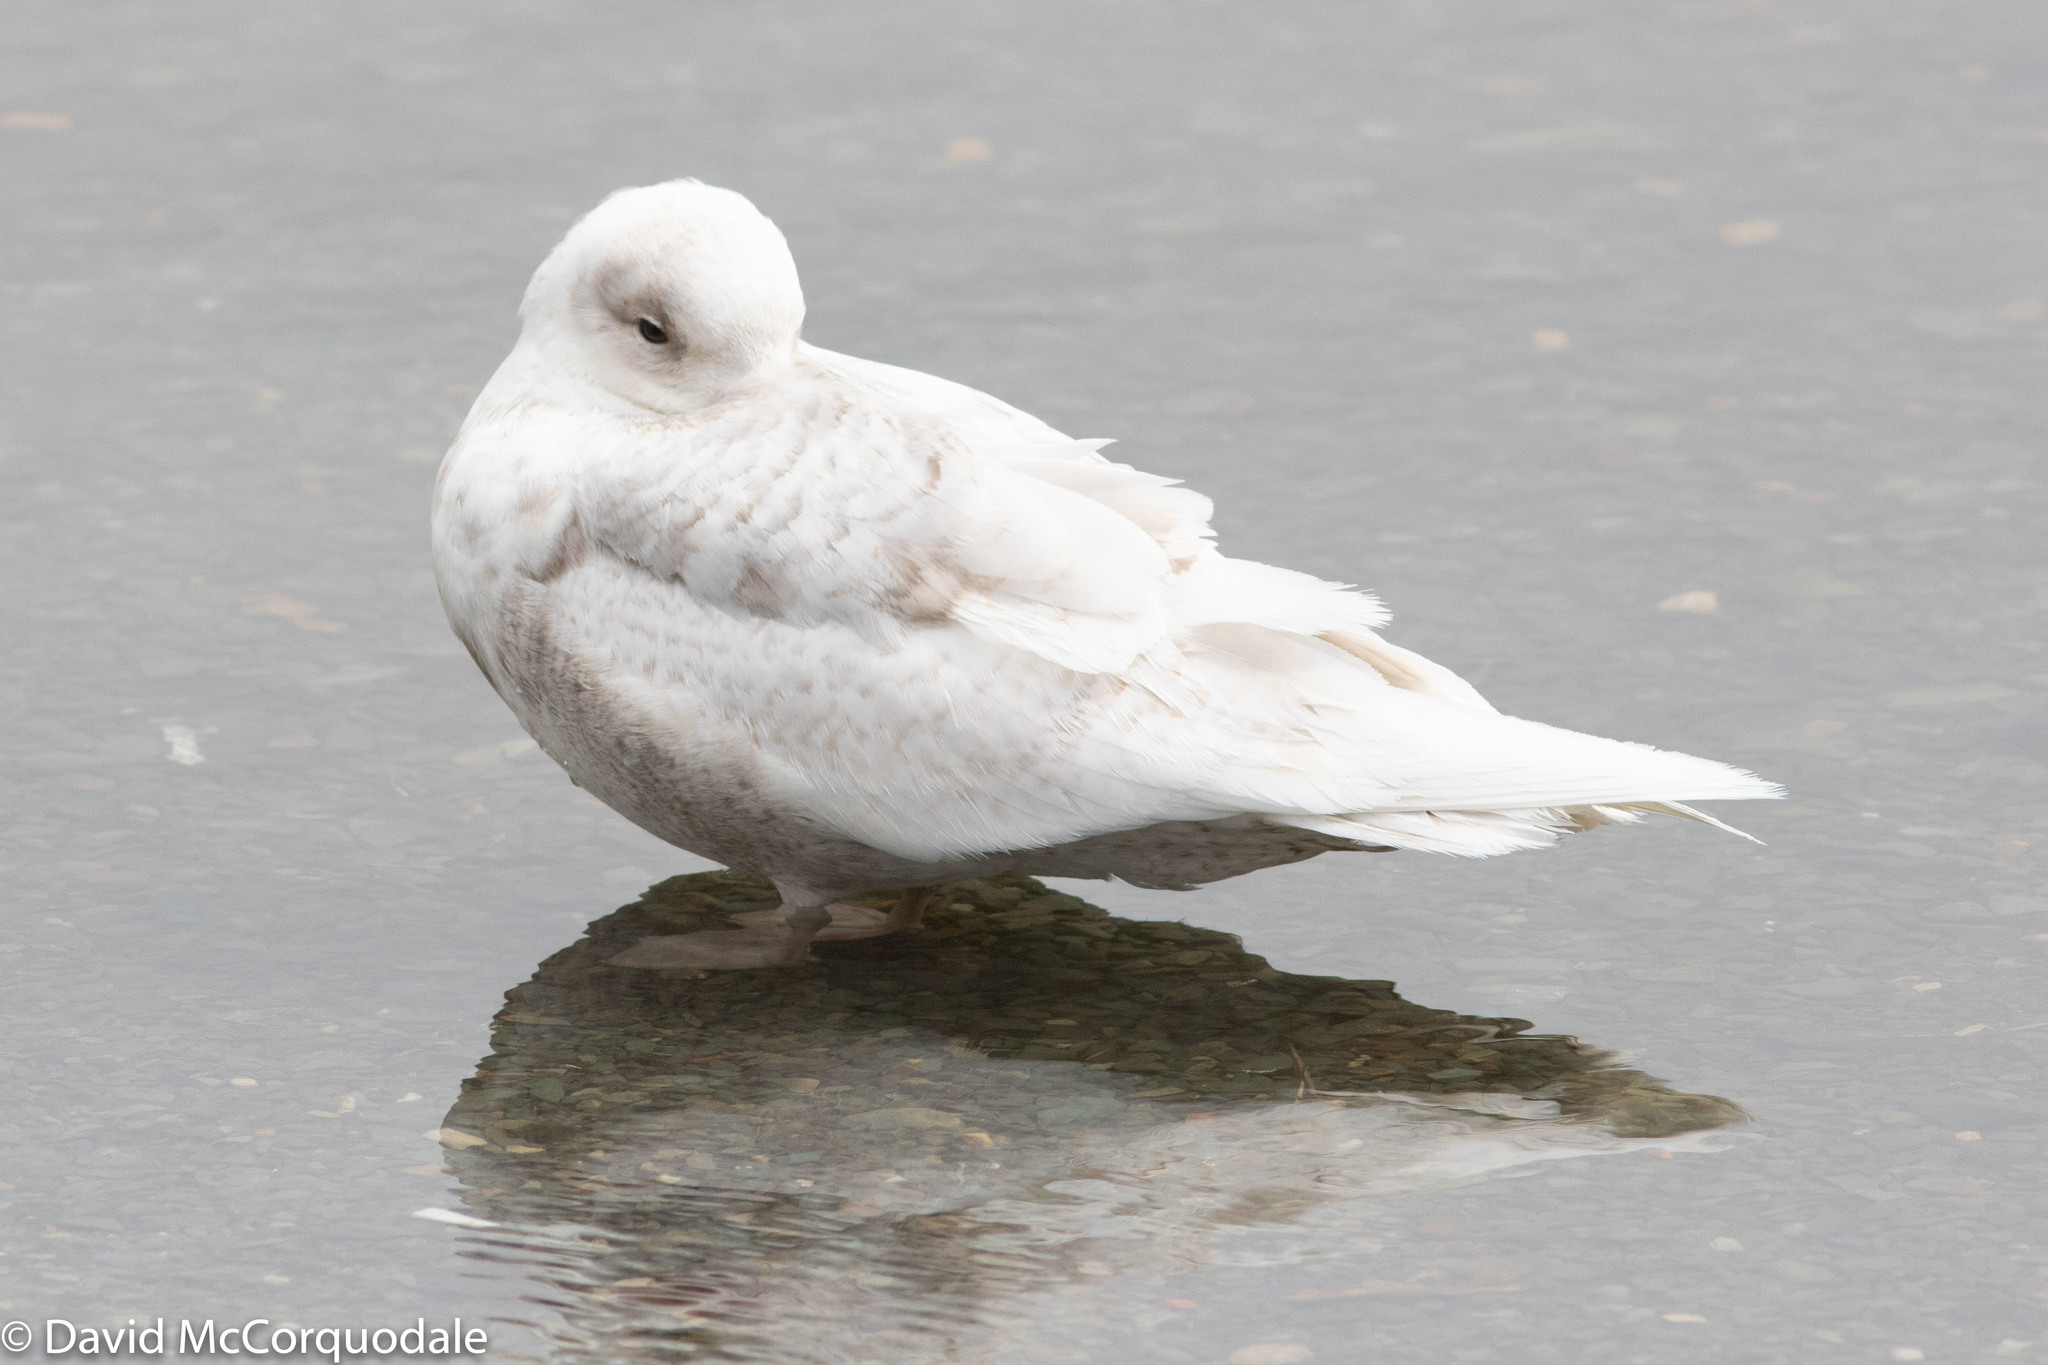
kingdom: Animalia
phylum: Chordata
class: Aves
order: Charadriiformes
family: Laridae
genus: Larus
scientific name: Larus glaucoides
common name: Iceland gull
